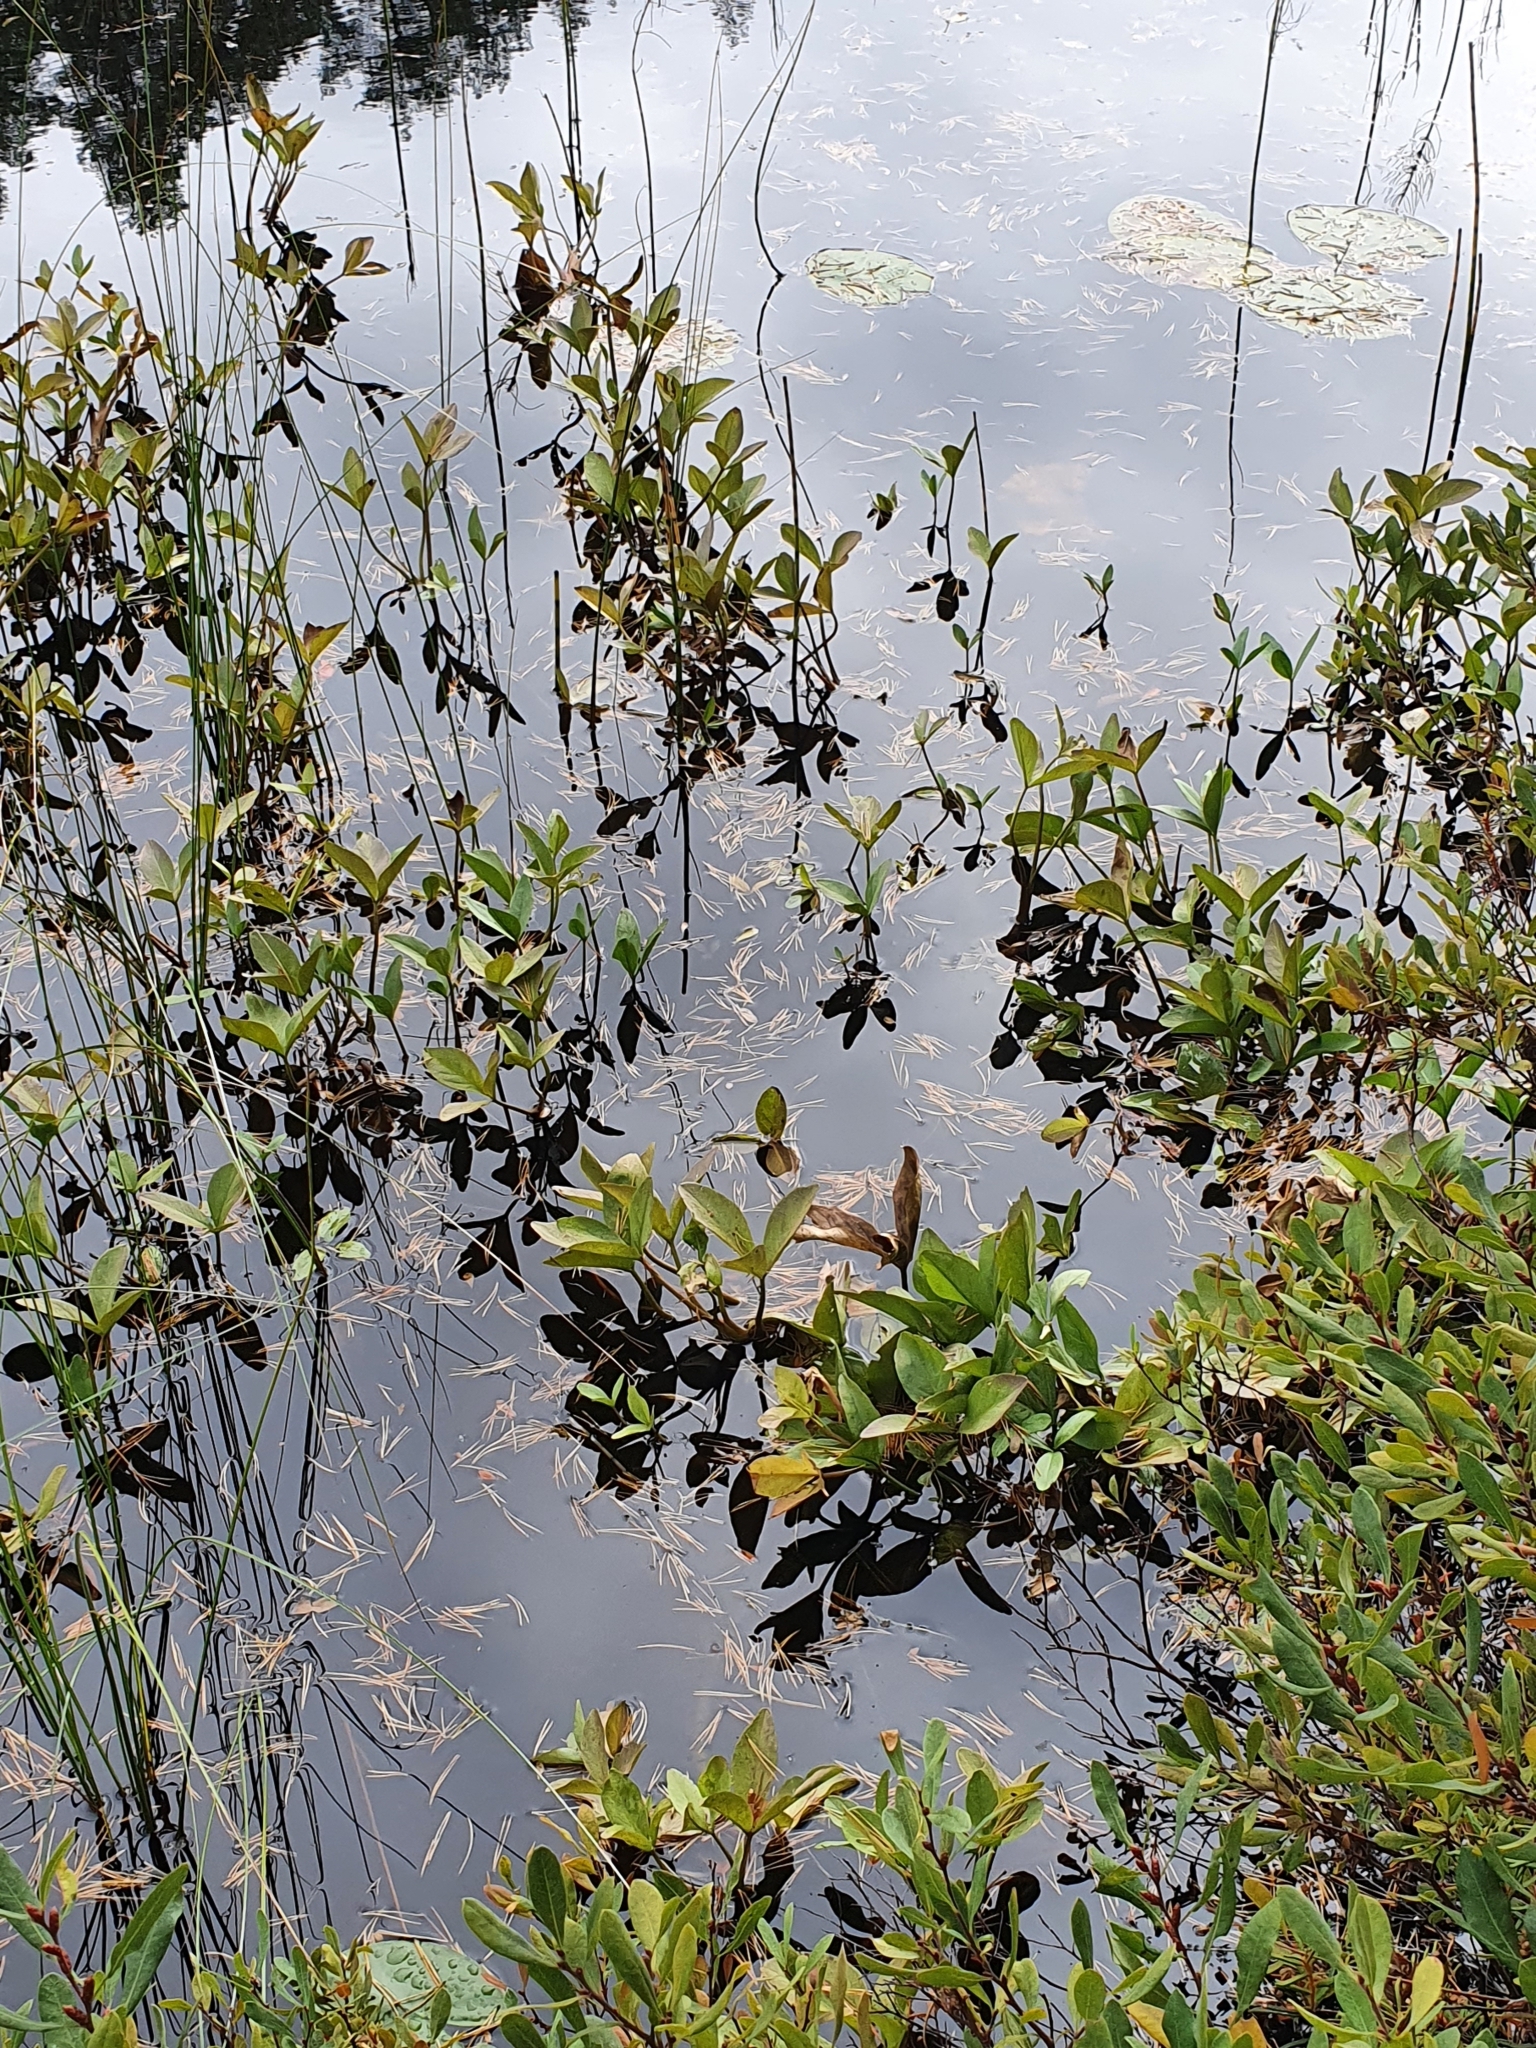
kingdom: Plantae
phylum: Tracheophyta
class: Magnoliopsida
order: Asterales
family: Menyanthaceae
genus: Menyanthes
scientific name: Menyanthes trifoliata
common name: Bogbean
